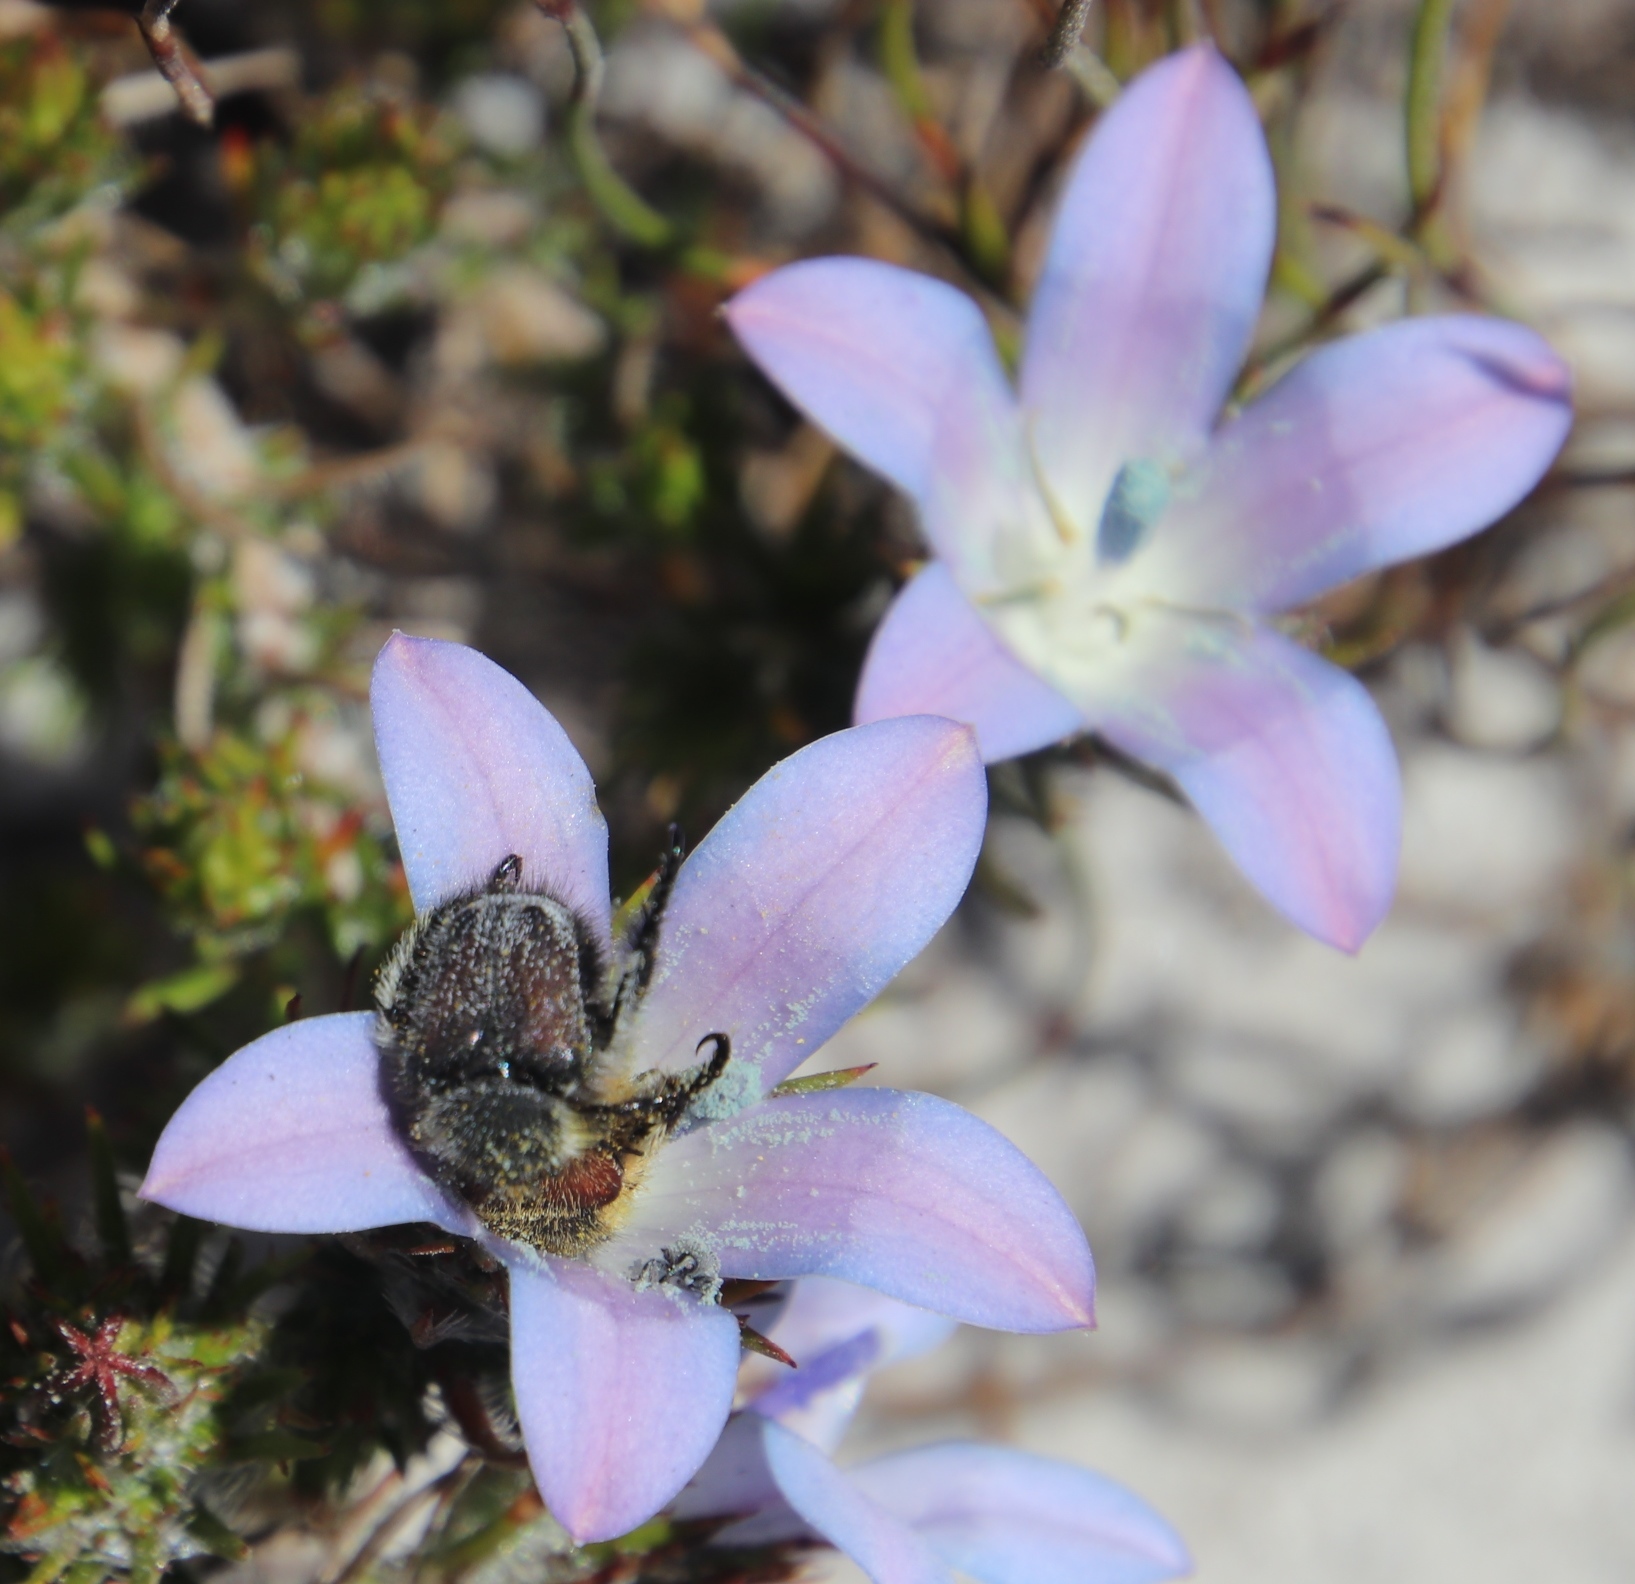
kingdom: Plantae
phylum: Tracheophyta
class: Magnoliopsida
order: Asterales
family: Campanulaceae
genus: Roella
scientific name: Roella prostrata
